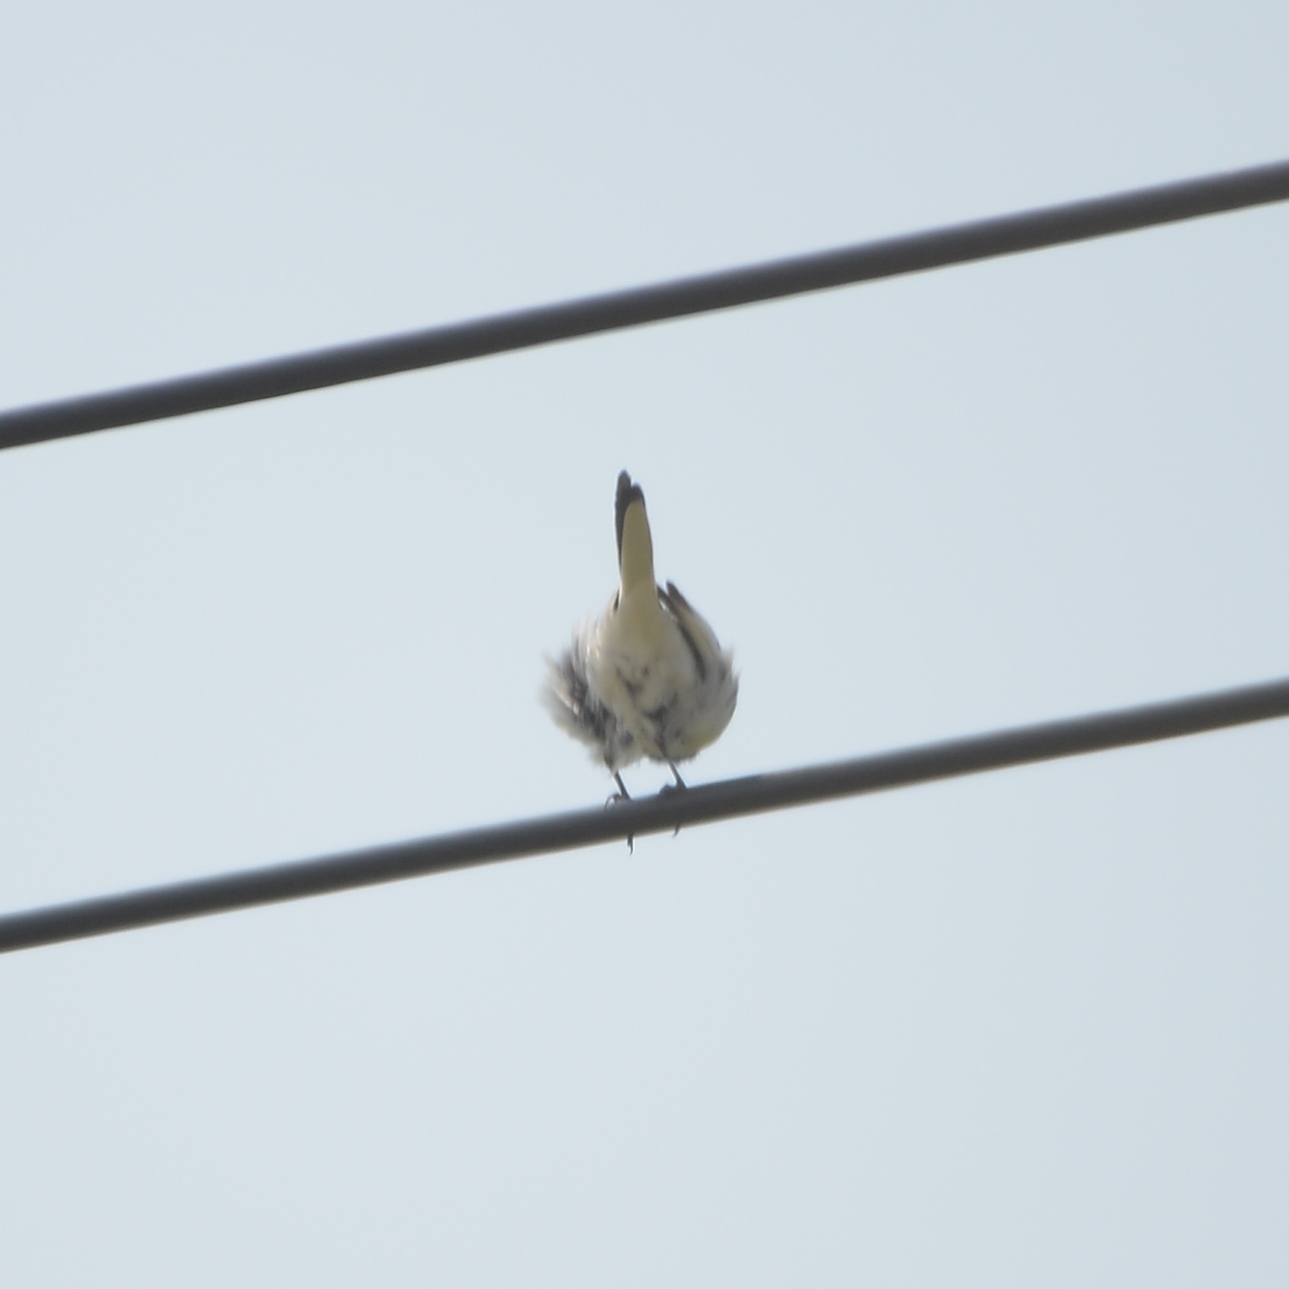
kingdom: Animalia
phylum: Chordata
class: Aves
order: Passeriformes
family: Muscicapidae
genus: Saxicola
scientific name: Saxicola stejnegeri
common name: Stejneger's stonechat
